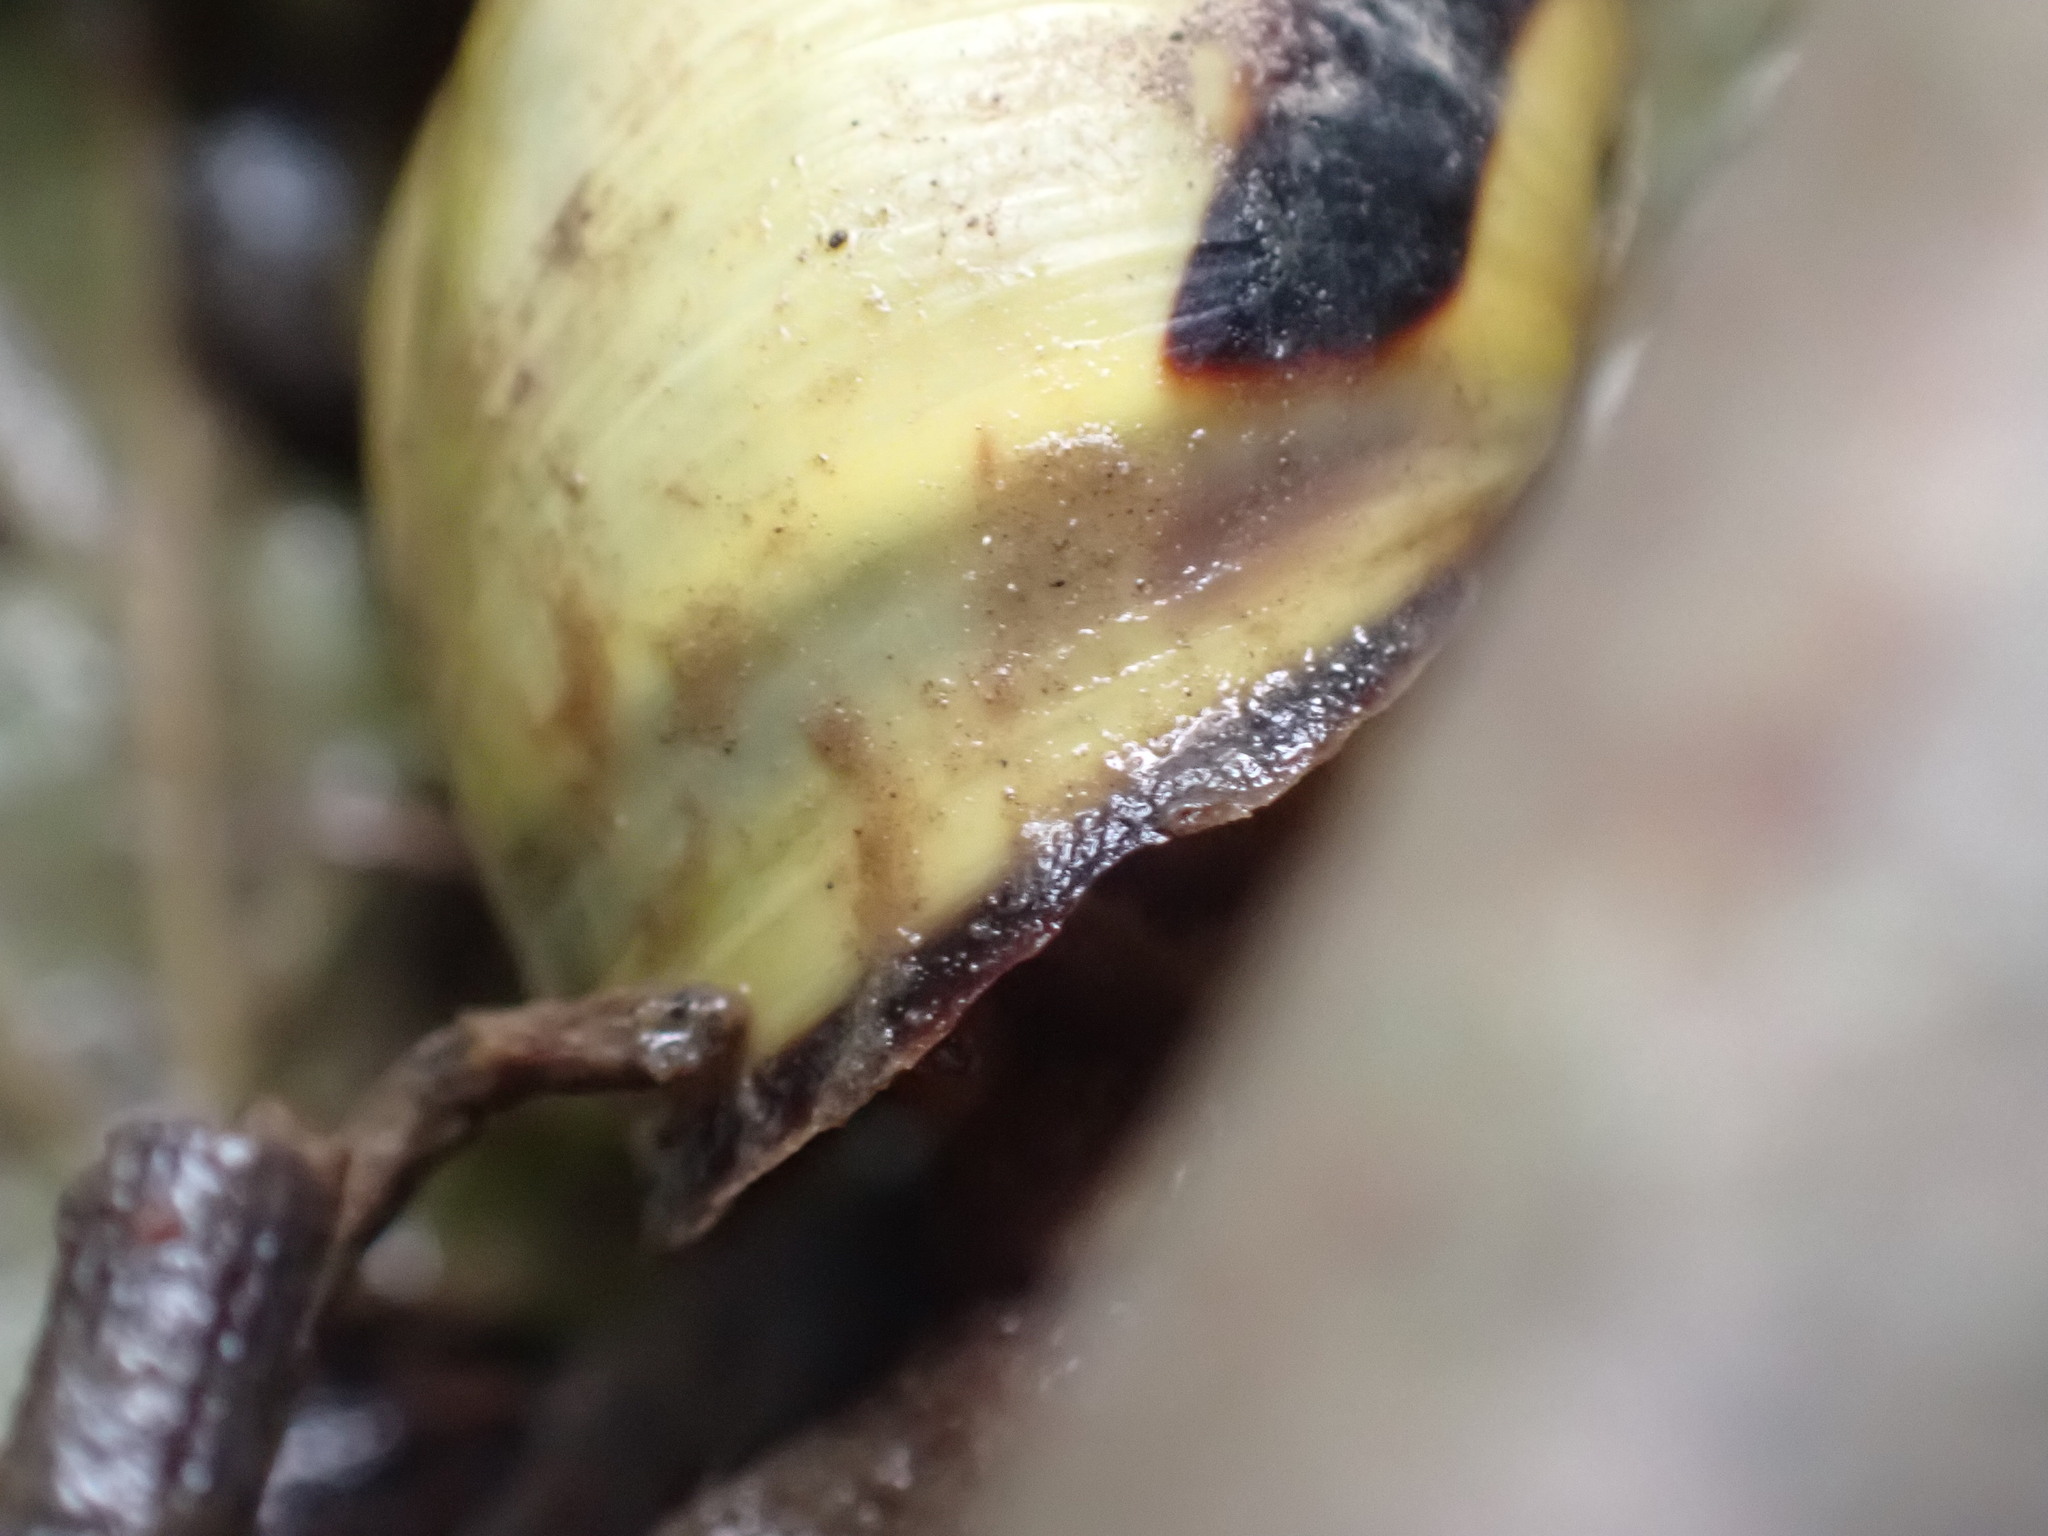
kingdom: Animalia
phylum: Mollusca
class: Gastropoda
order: Stylommatophora
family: Helicidae
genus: Cepaea
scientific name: Cepaea nemoralis
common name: Grovesnail
